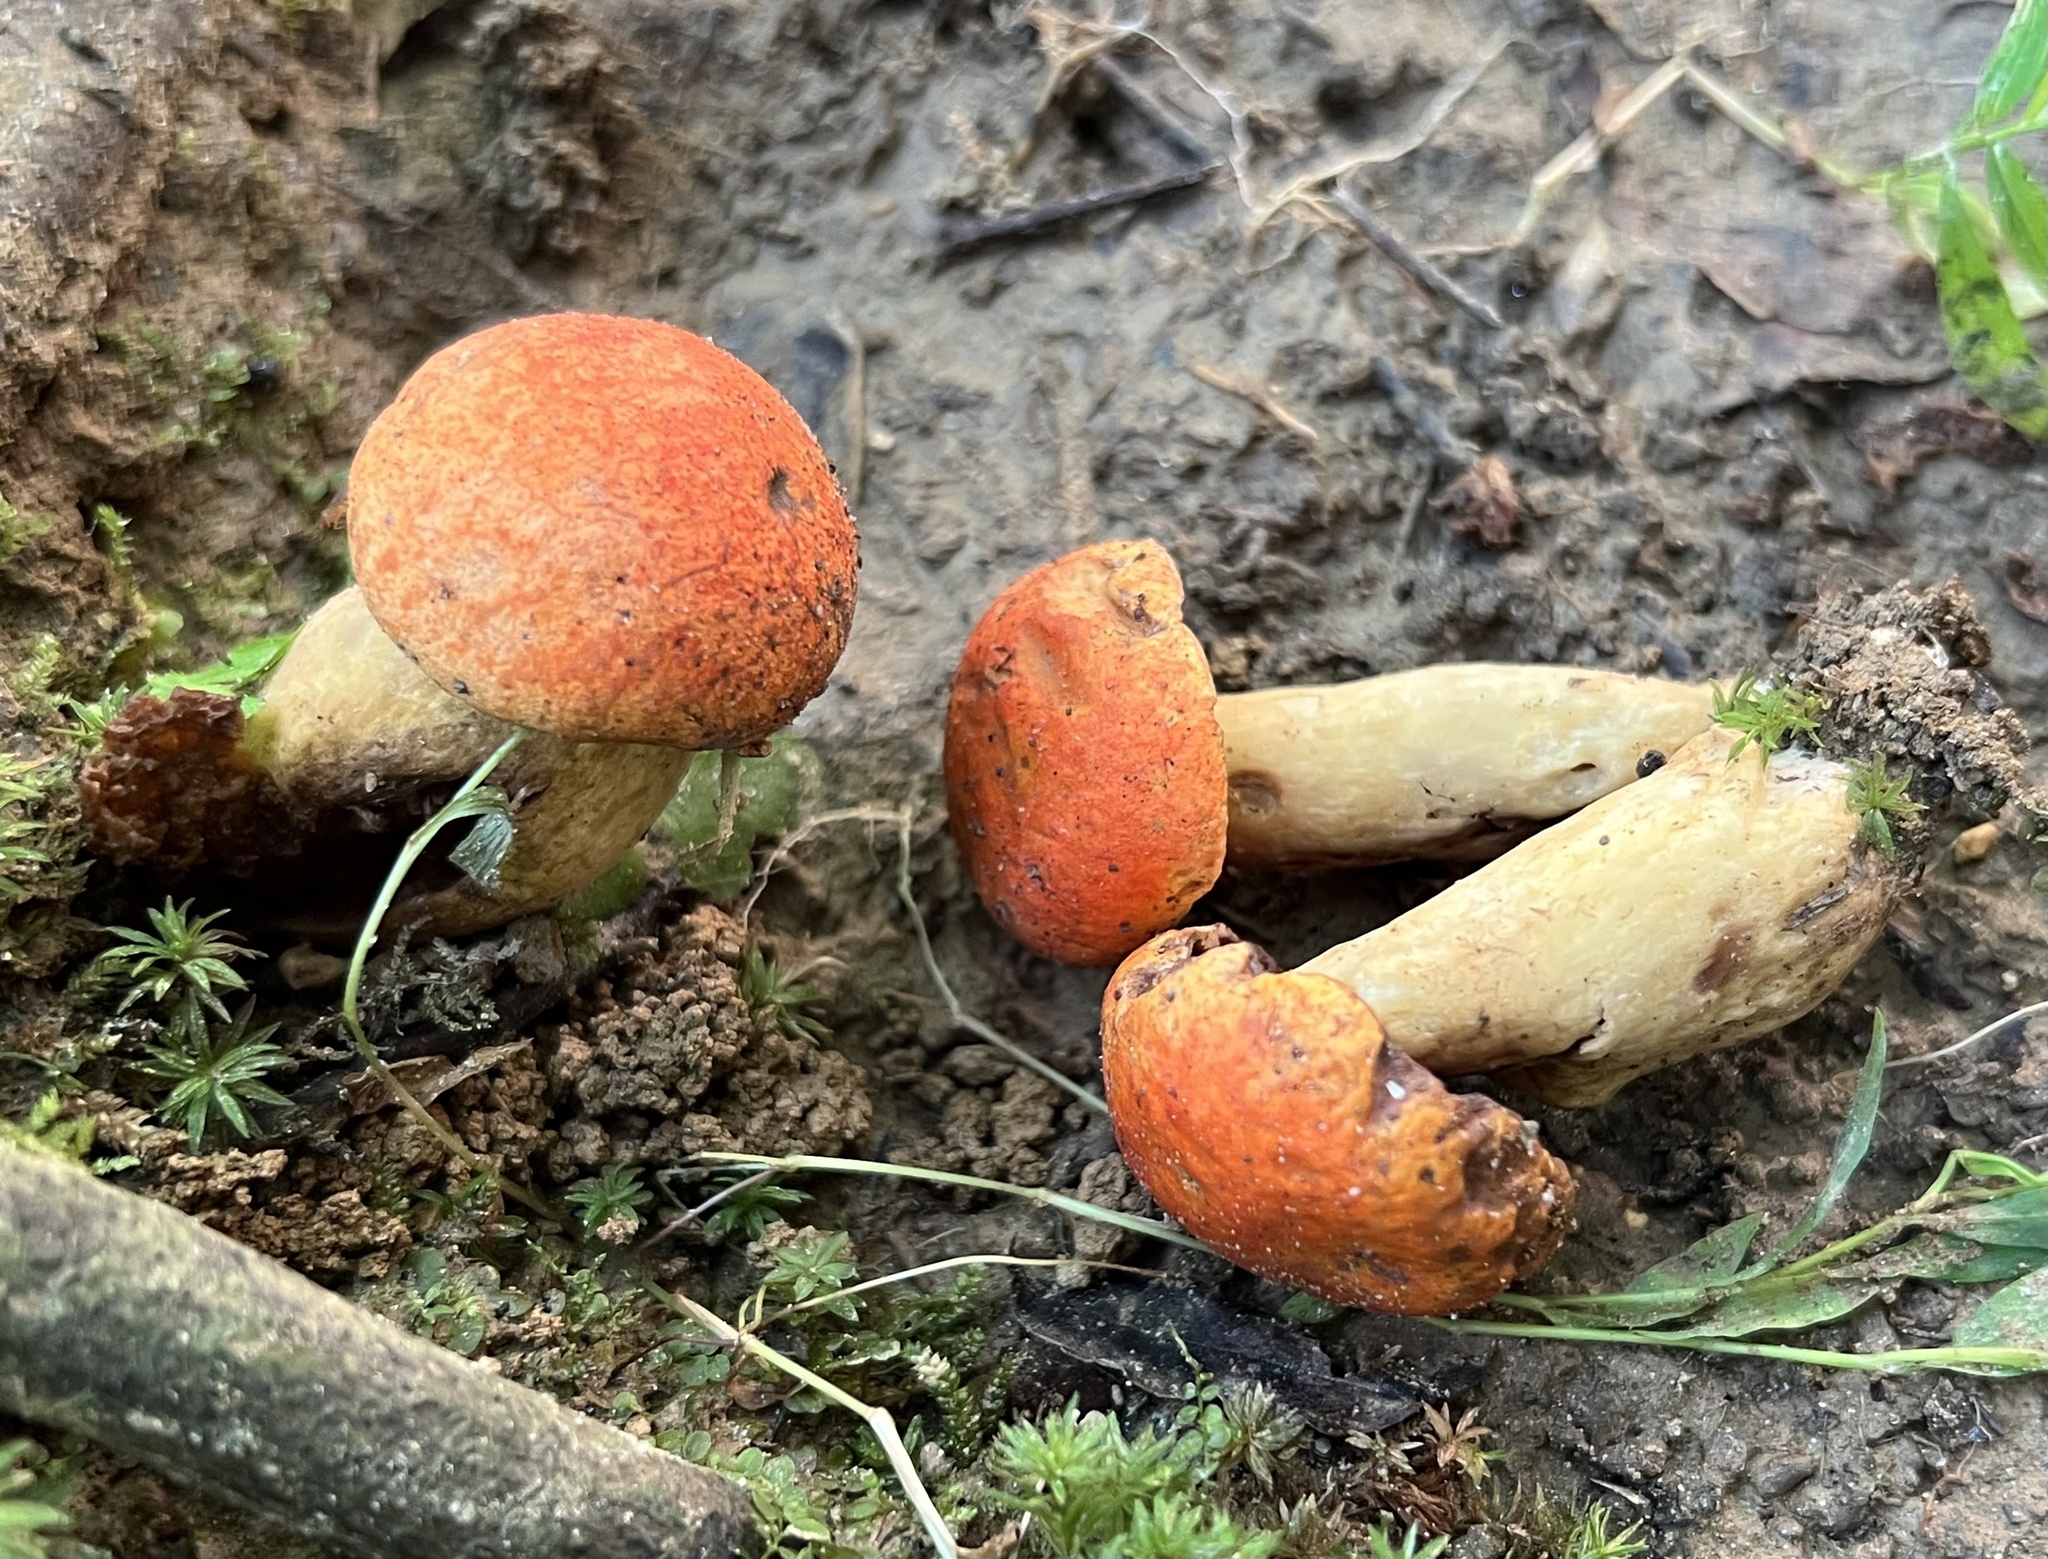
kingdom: Fungi
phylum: Basidiomycota
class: Agaricomycetes
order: Boletales
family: Boletaceae
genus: Tylopilus
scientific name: Tylopilus balloui
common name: Burnt-orange bolete
